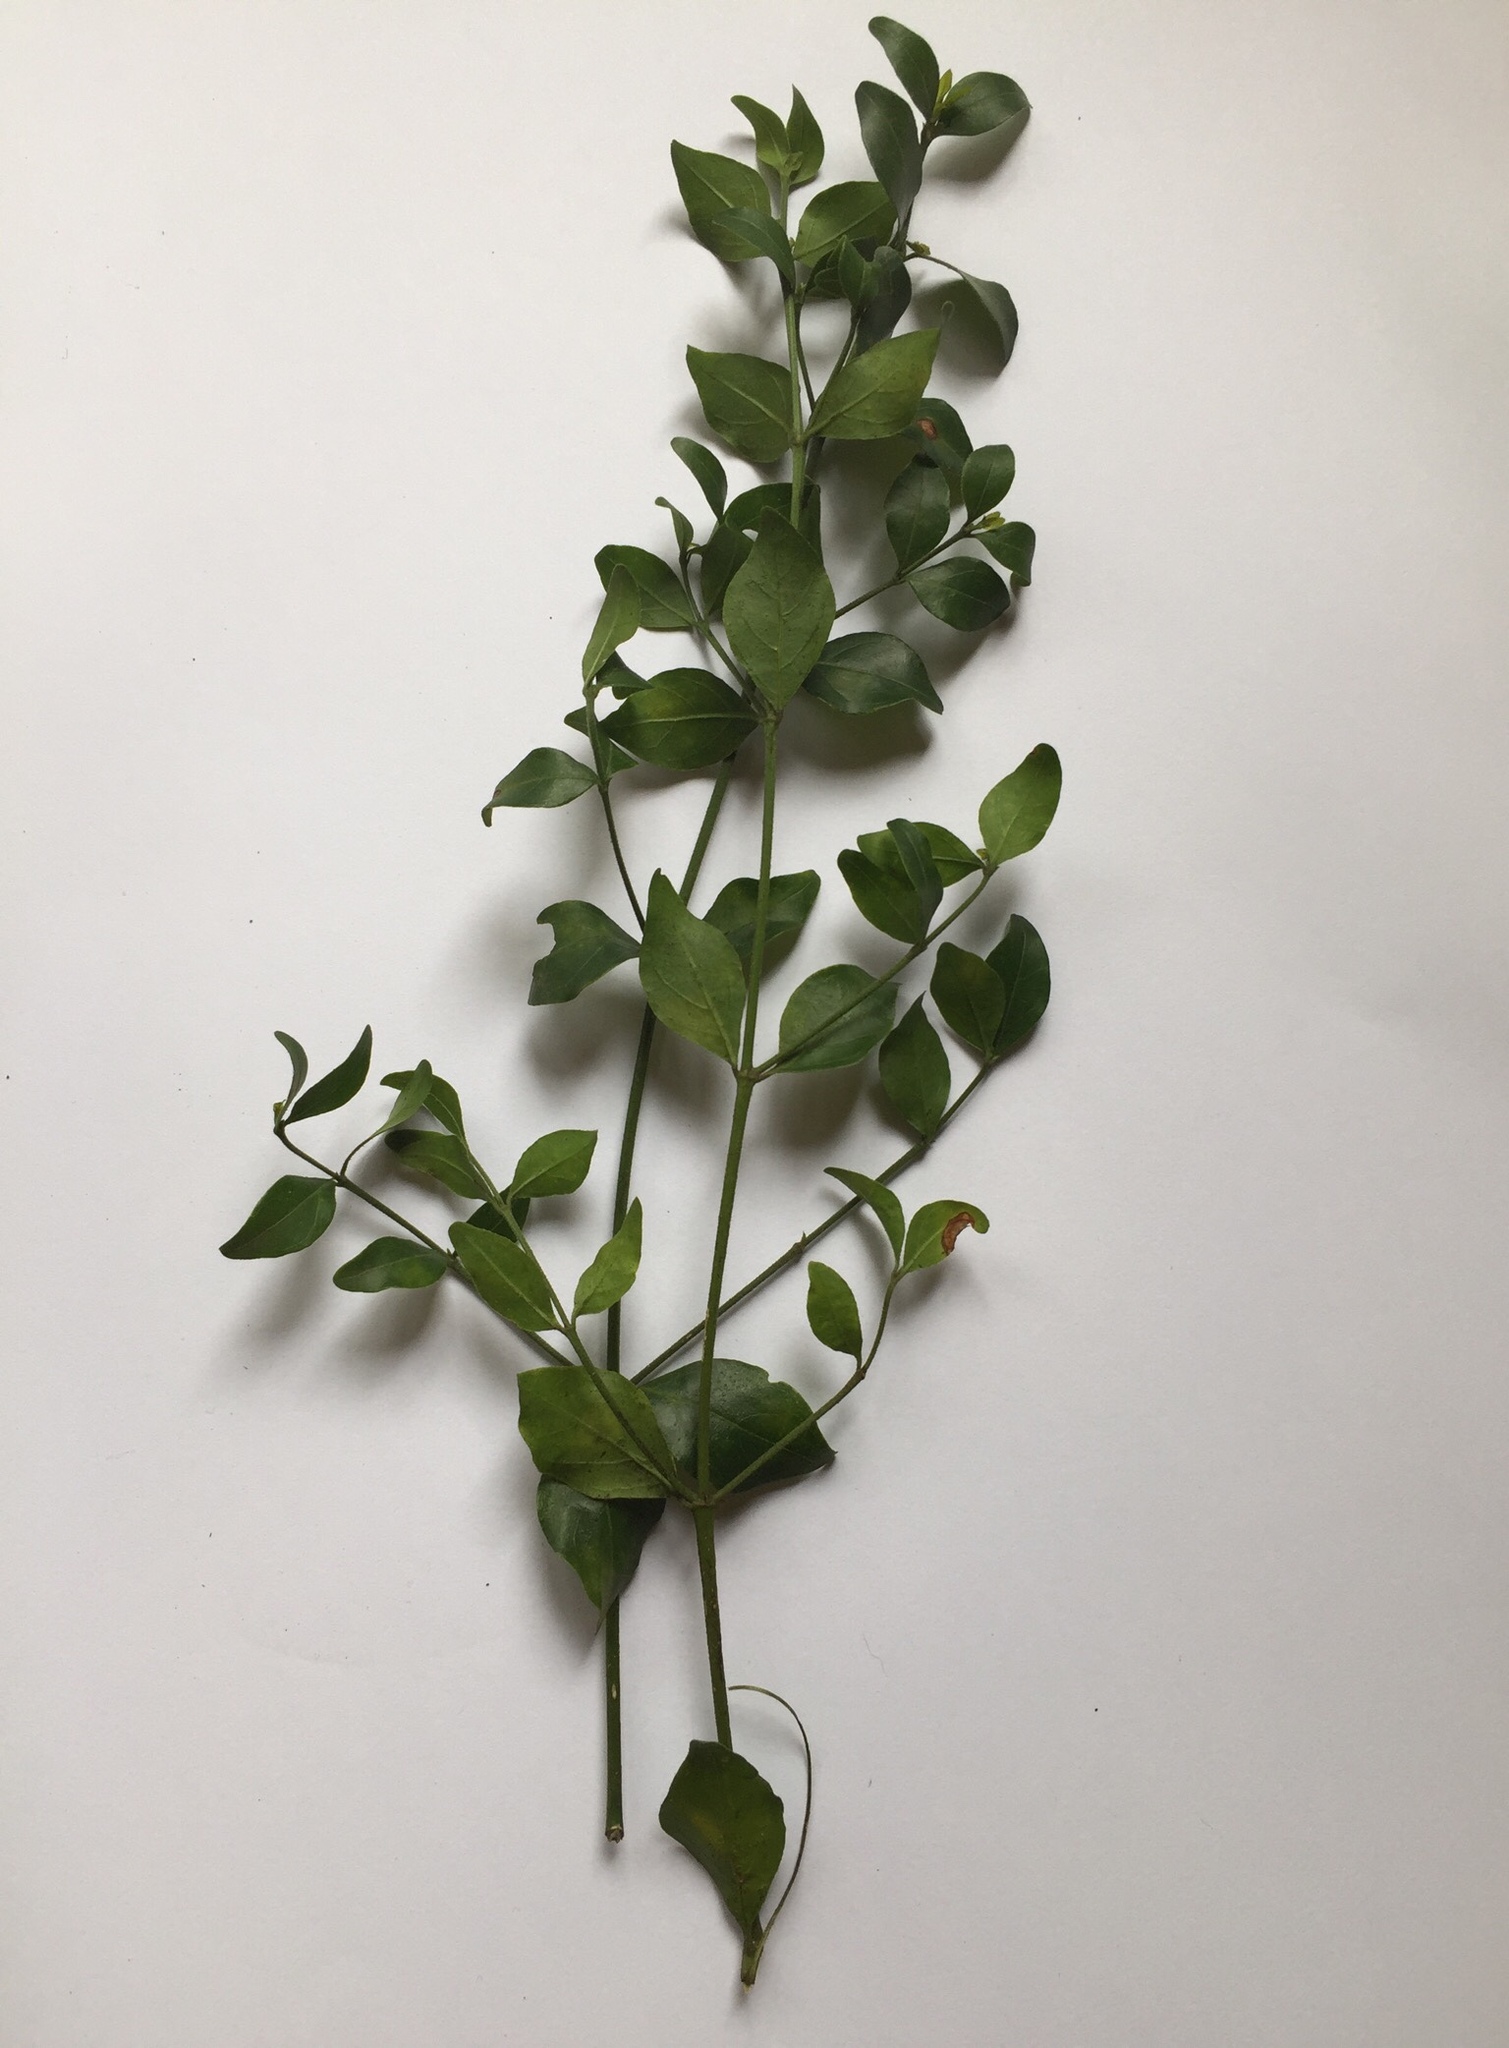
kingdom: Plantae
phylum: Tracheophyta
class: Magnoliopsida
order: Gentianales
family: Rubiaceae
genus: Psydrax
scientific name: Psydrax locuples
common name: Sand quar
